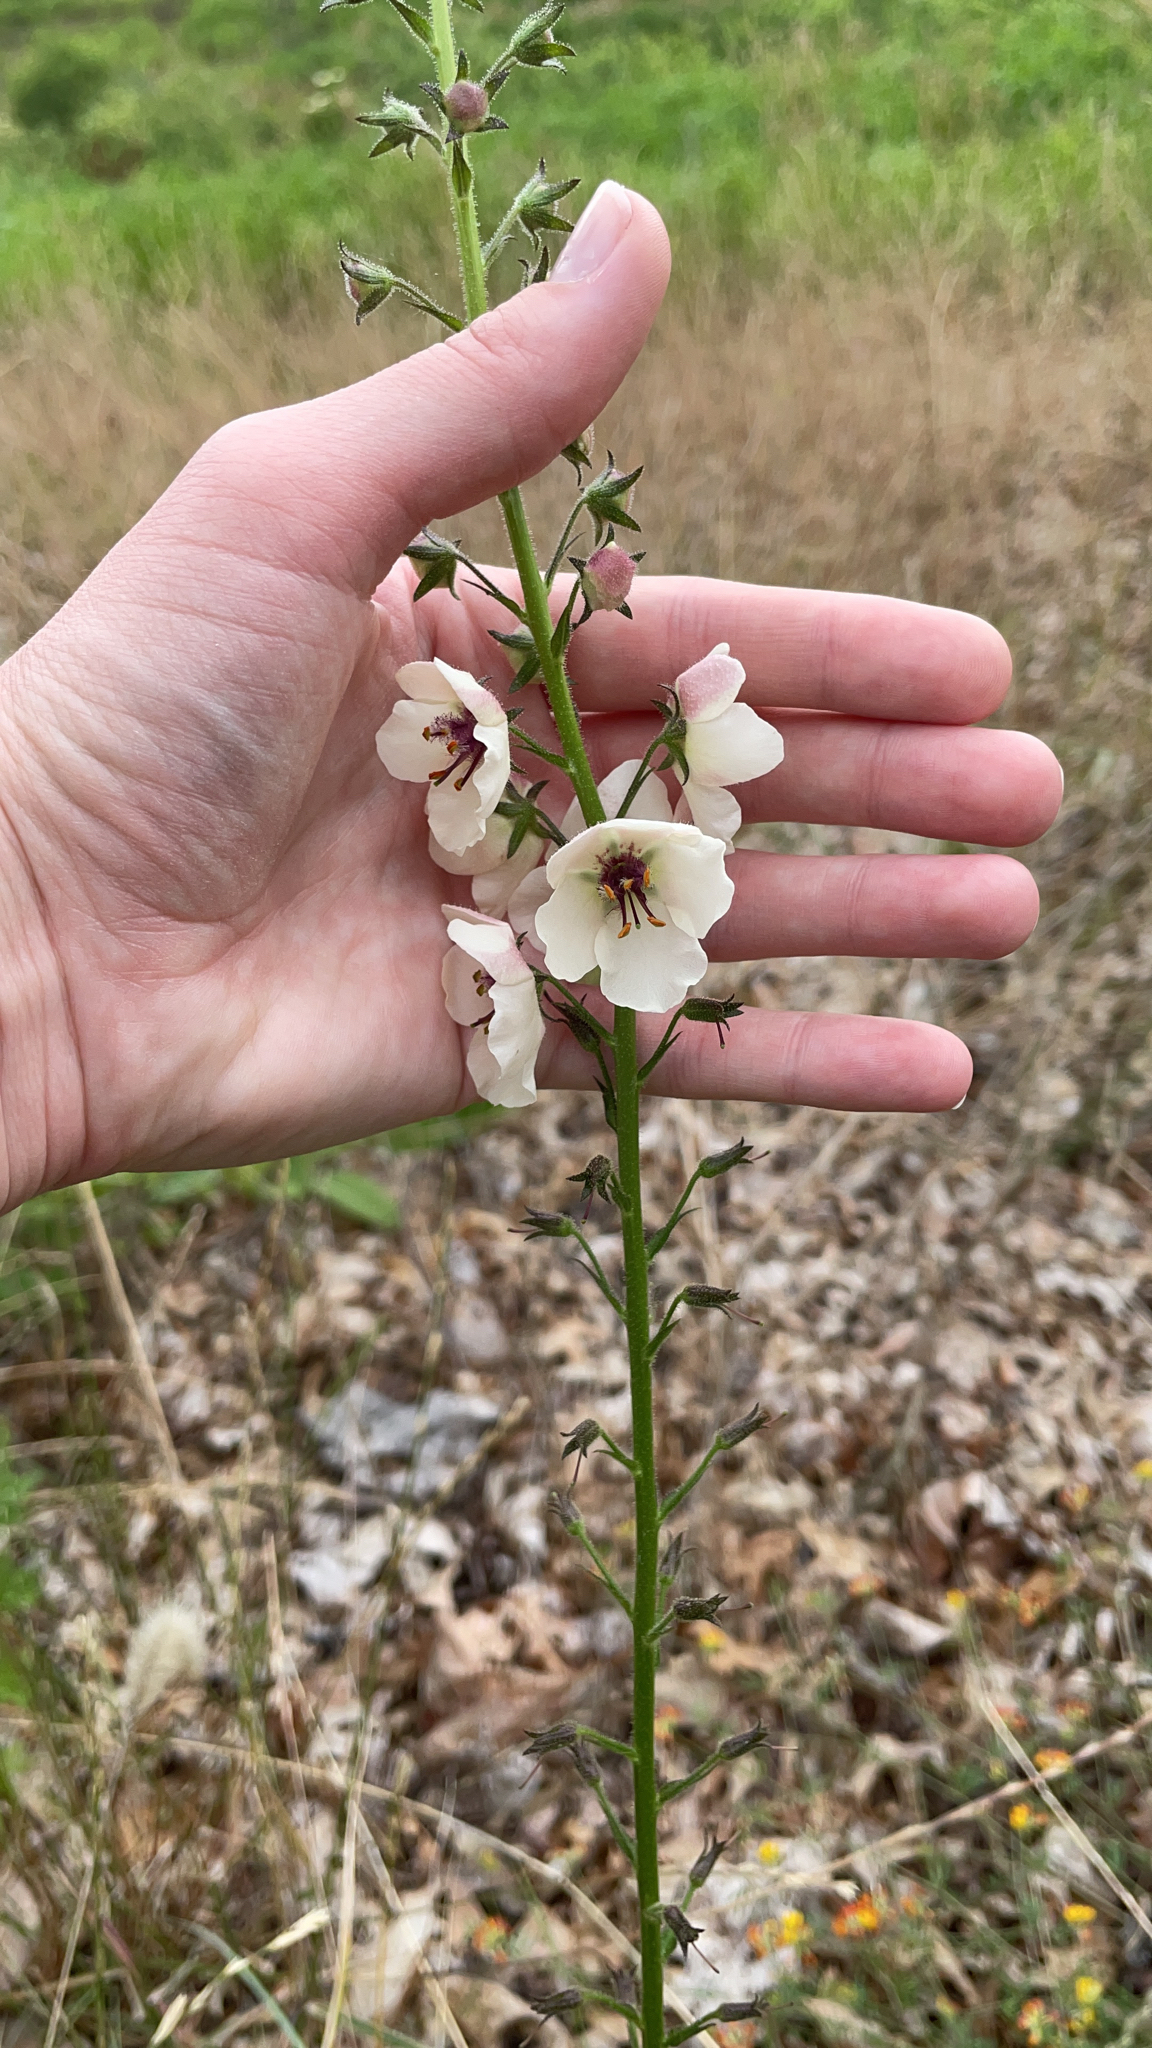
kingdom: Plantae
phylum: Tracheophyta
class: Magnoliopsida
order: Lamiales
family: Scrophulariaceae
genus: Verbascum
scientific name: Verbascum blattaria
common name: Moth mullein
